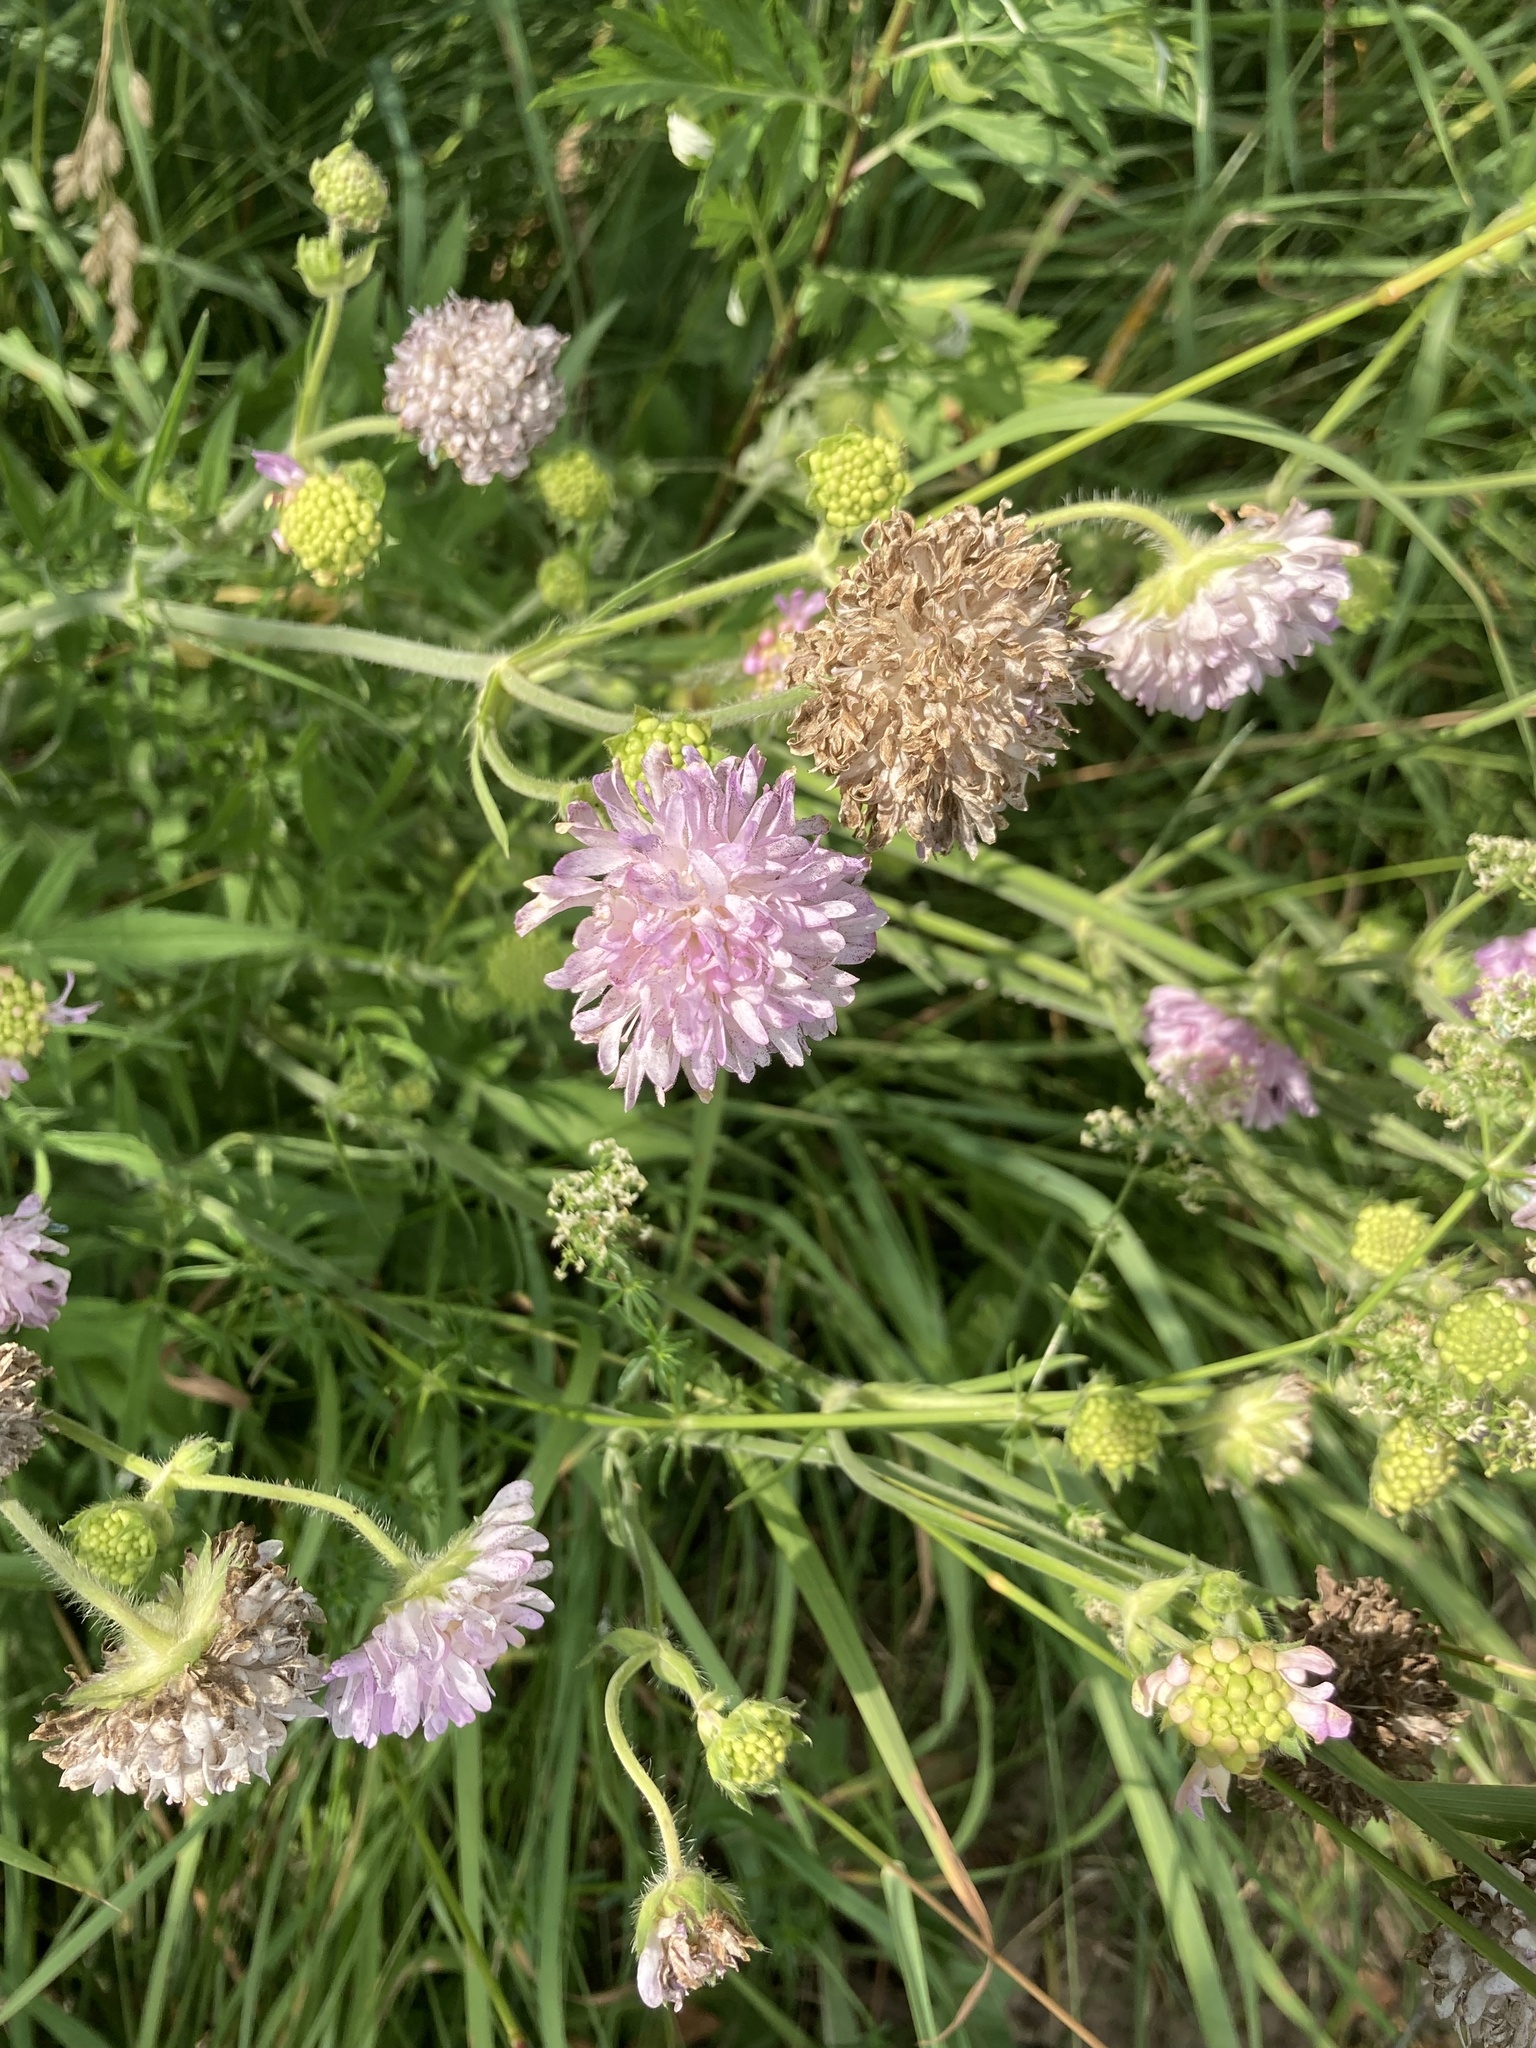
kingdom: Plantae
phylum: Tracheophyta
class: Magnoliopsida
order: Dipsacales
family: Caprifoliaceae
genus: Knautia
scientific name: Knautia arvensis
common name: Field scabiosa
